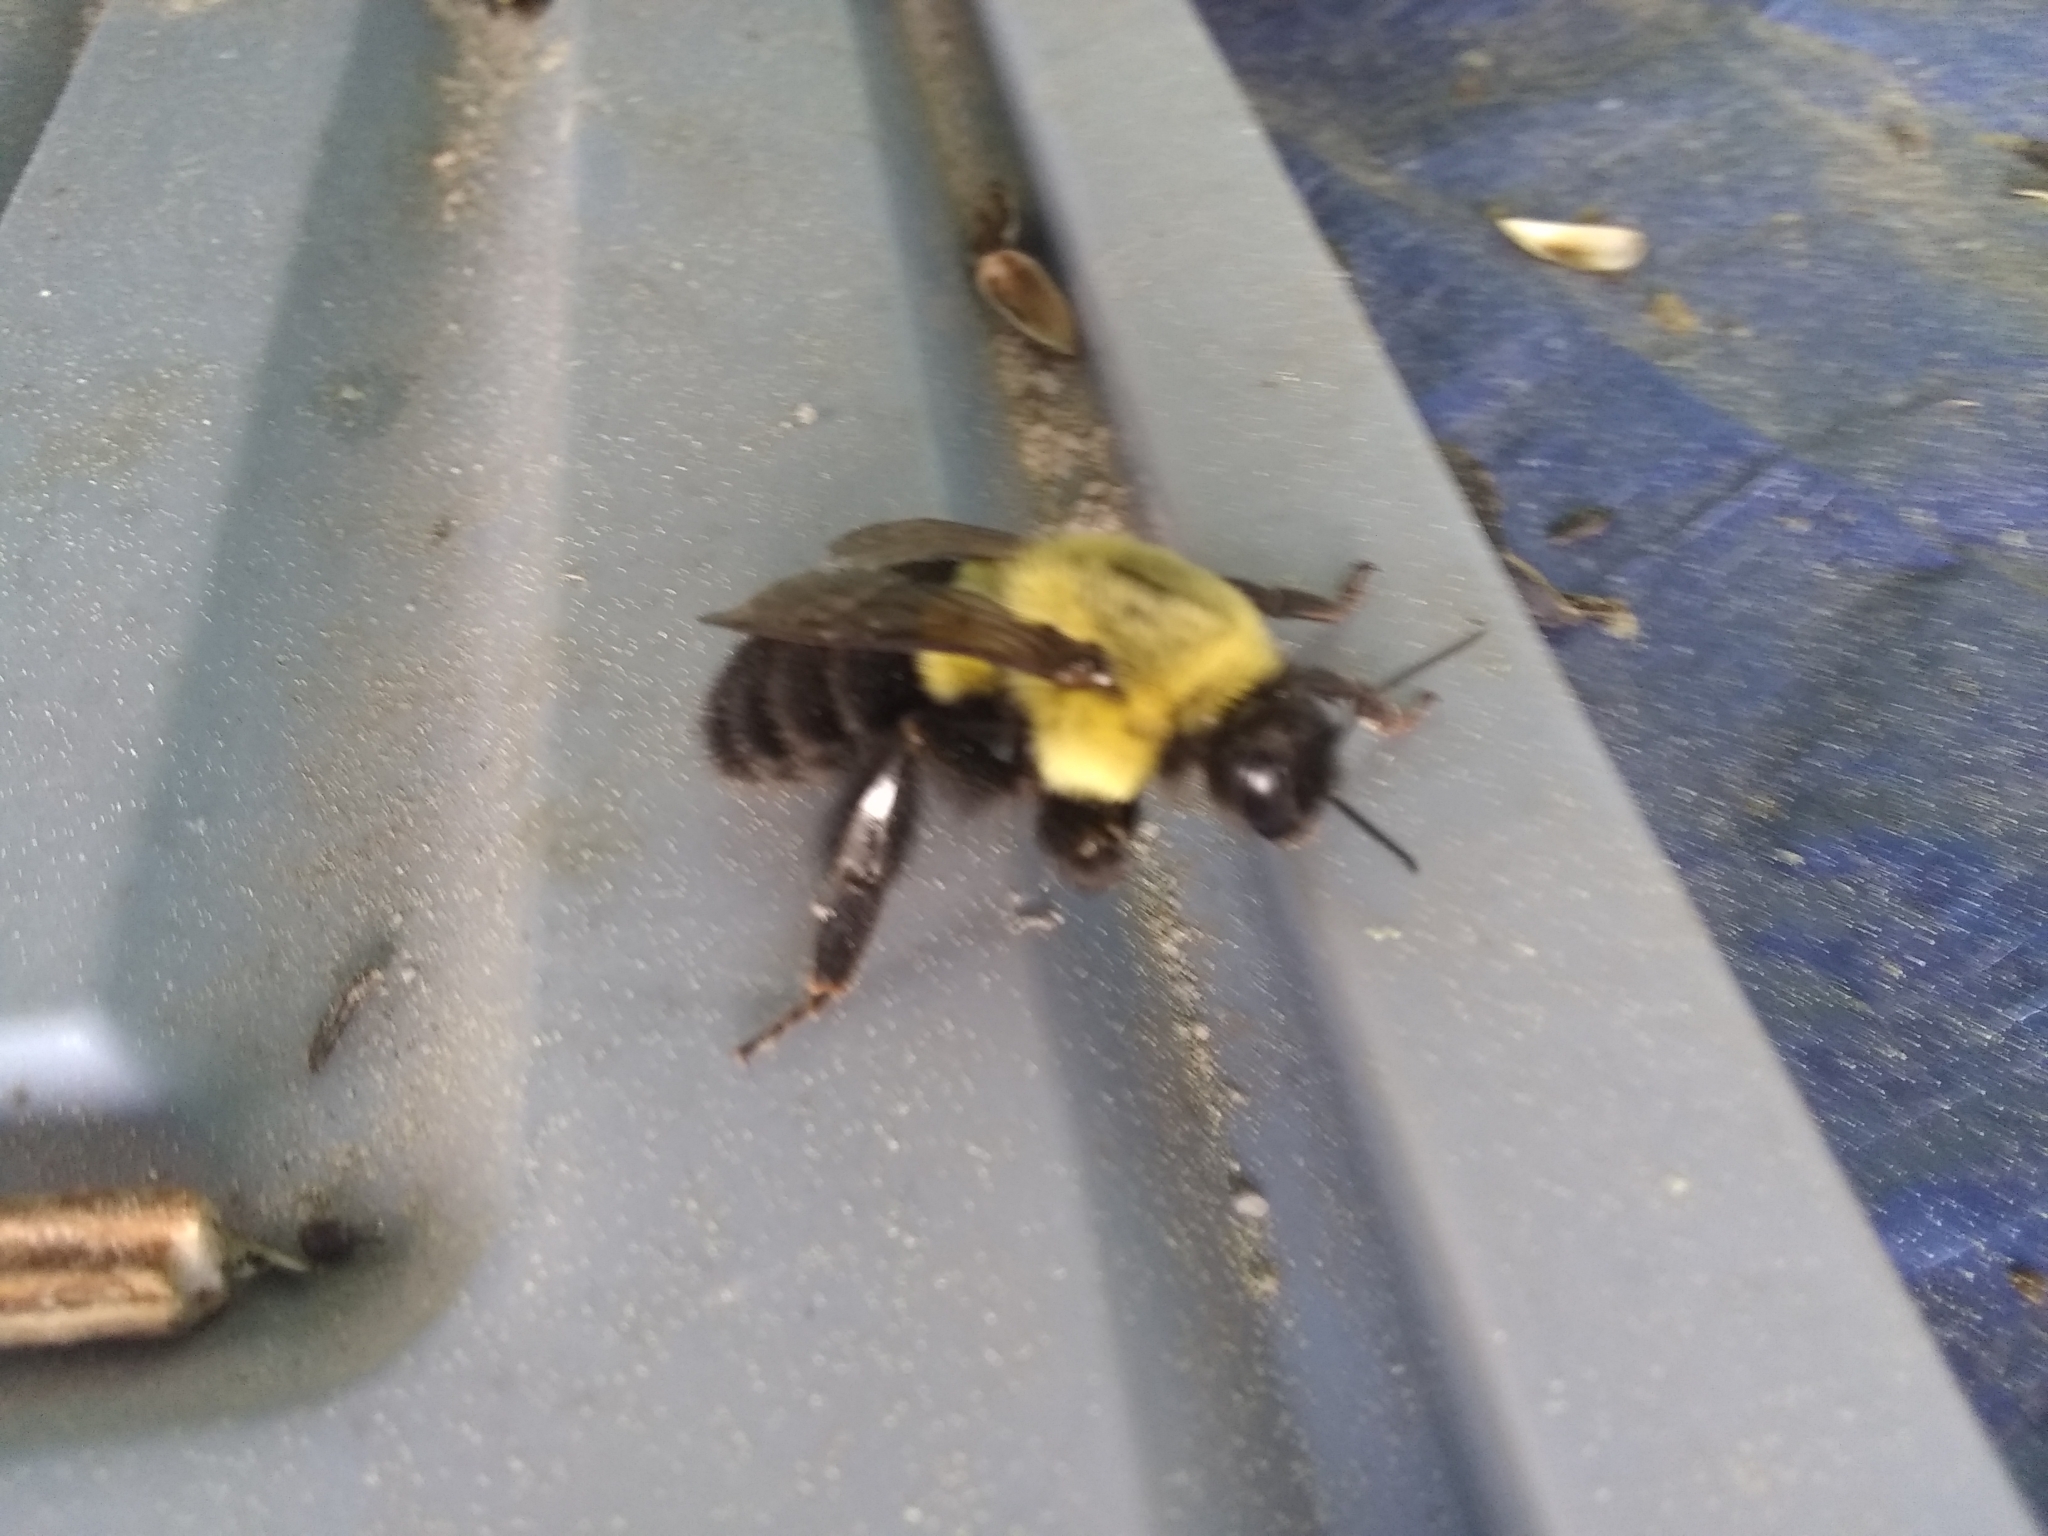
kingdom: Animalia
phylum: Arthropoda
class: Insecta
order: Hymenoptera
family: Apidae
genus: Bombus
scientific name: Bombus impatiens
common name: Common eastern bumble bee
